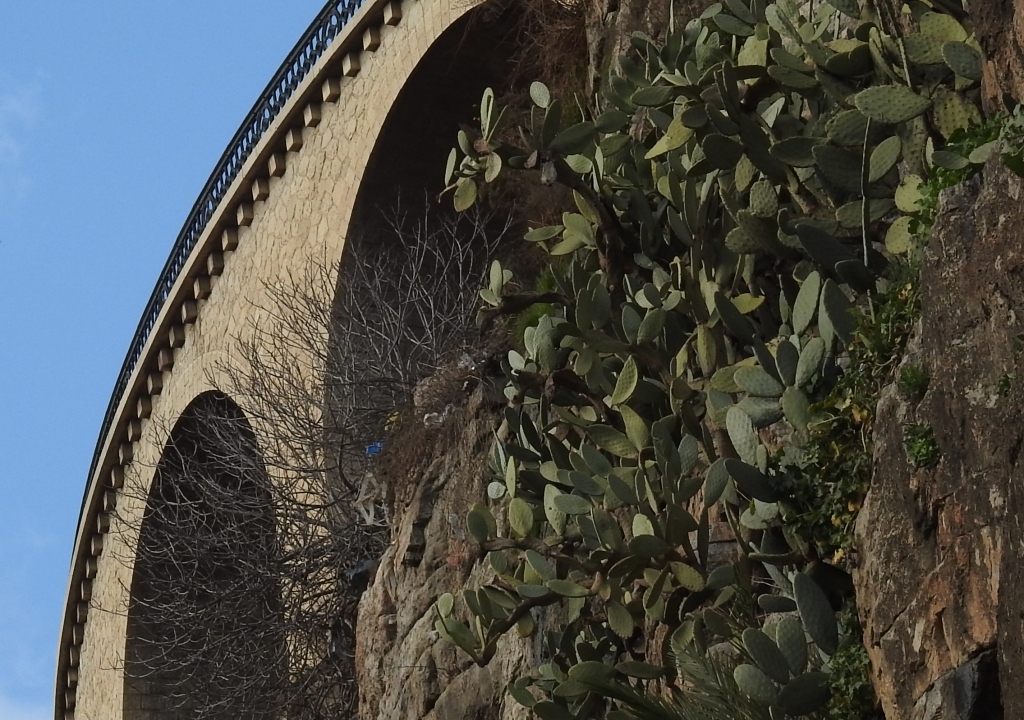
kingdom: Plantae
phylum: Tracheophyta
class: Magnoliopsida
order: Caryophyllales
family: Cactaceae
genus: Opuntia
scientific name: Opuntia ficus-indica
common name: Barbary fig
